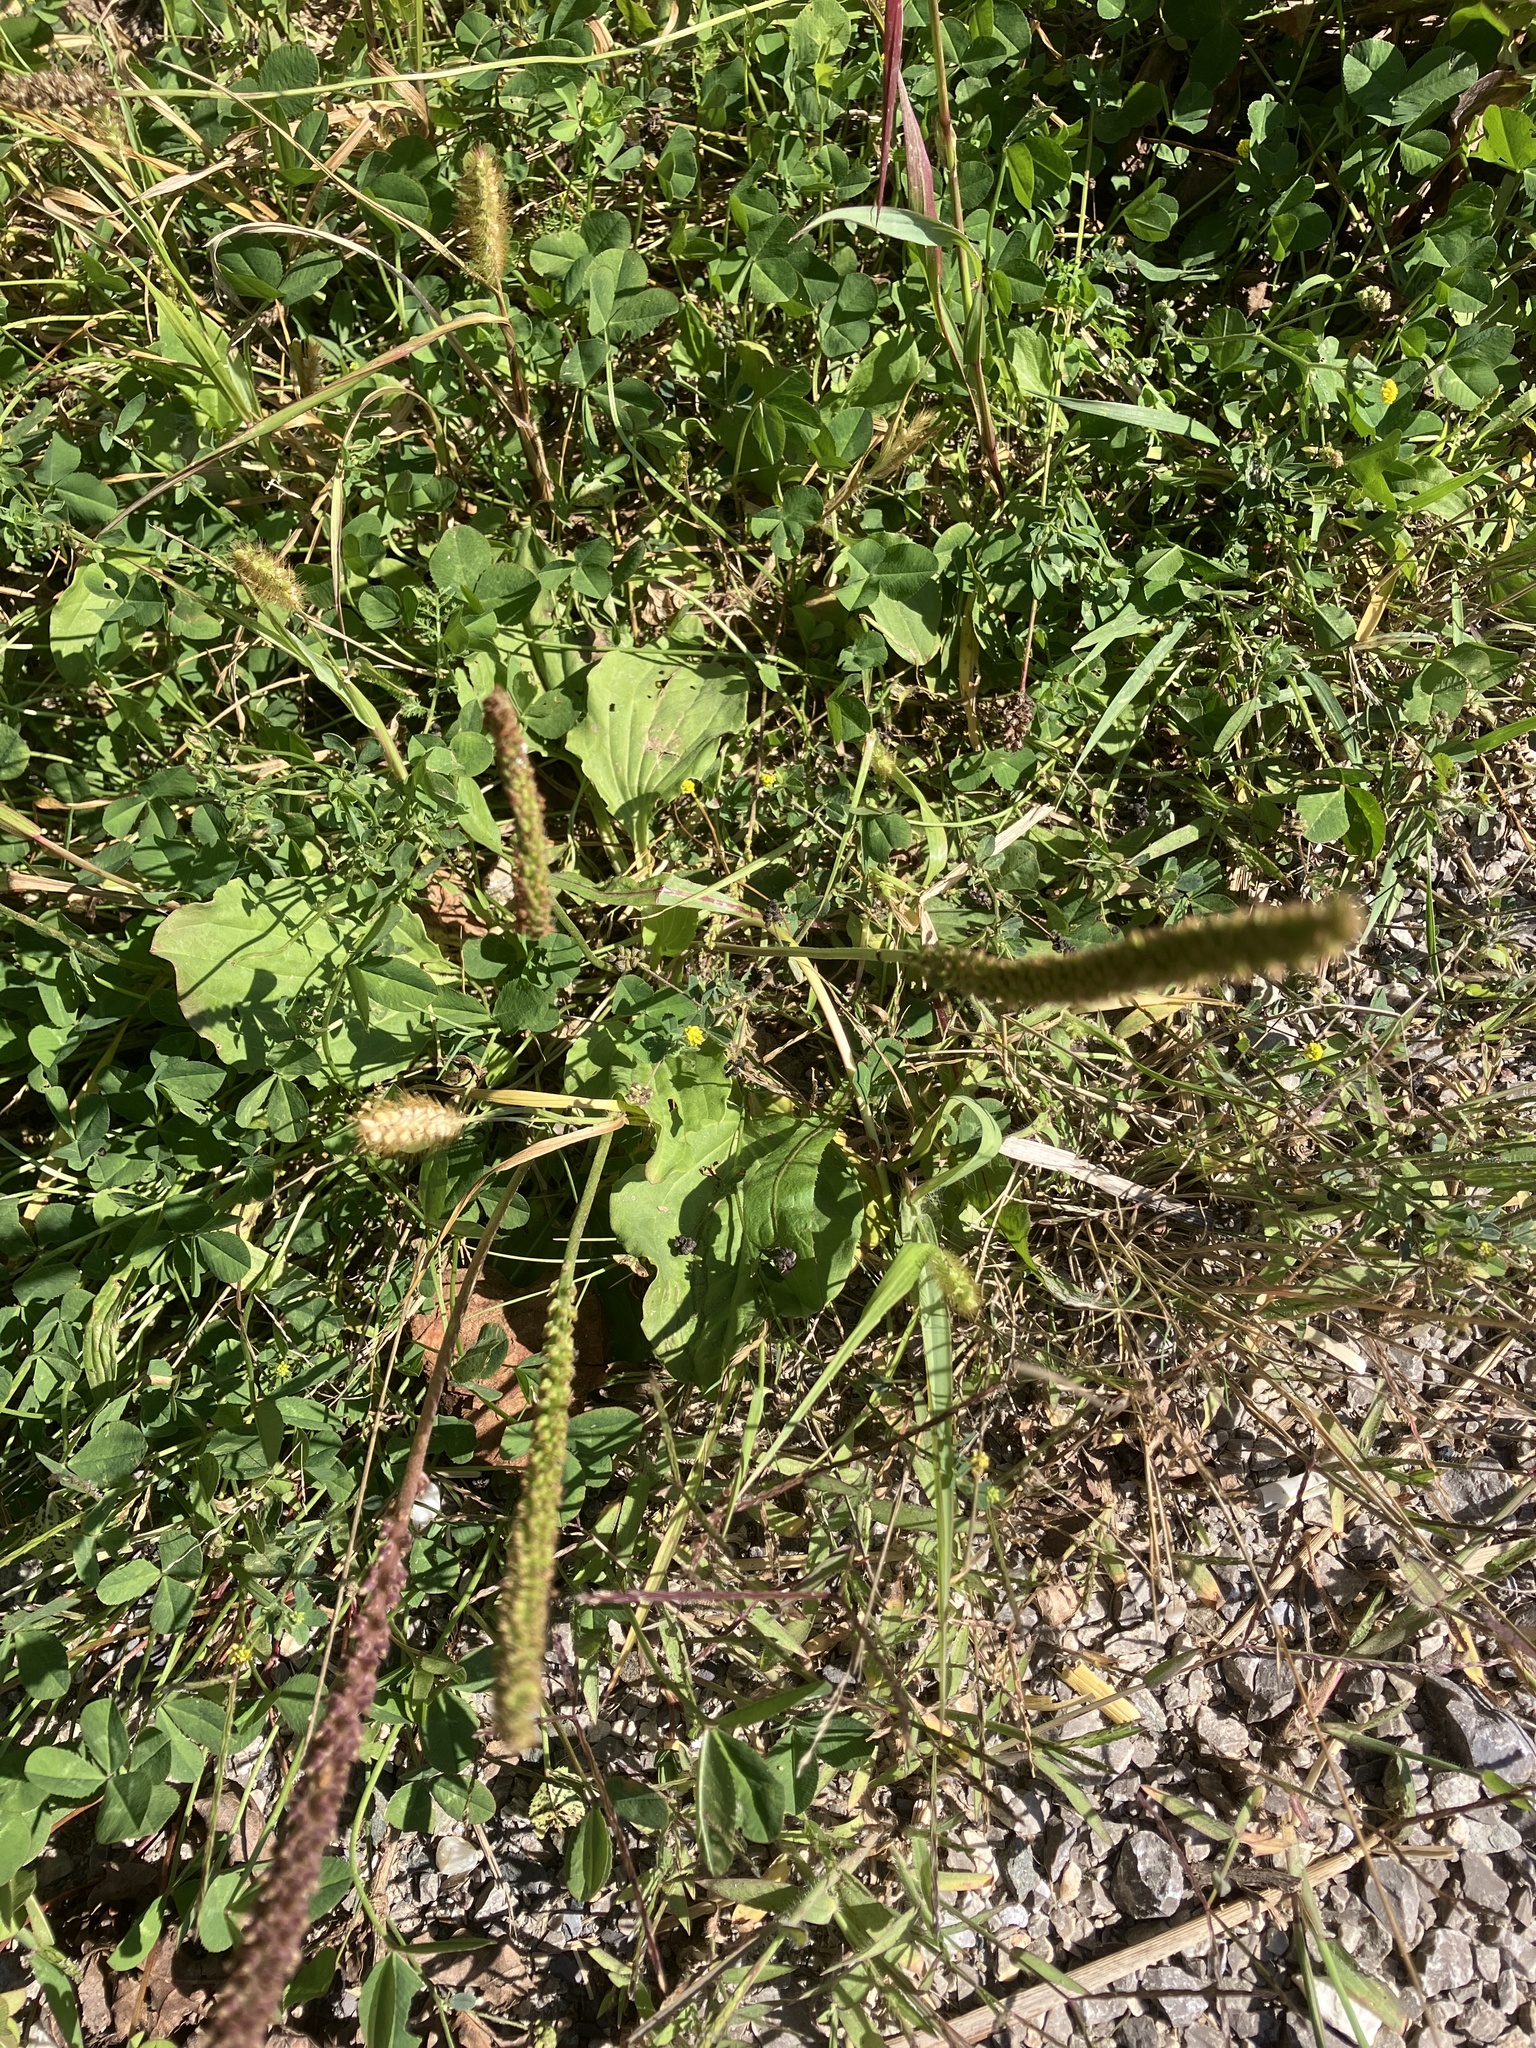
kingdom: Plantae
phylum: Tracheophyta
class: Magnoliopsida
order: Lamiales
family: Plantaginaceae
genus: Plantago
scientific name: Plantago major
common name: Common plantain
